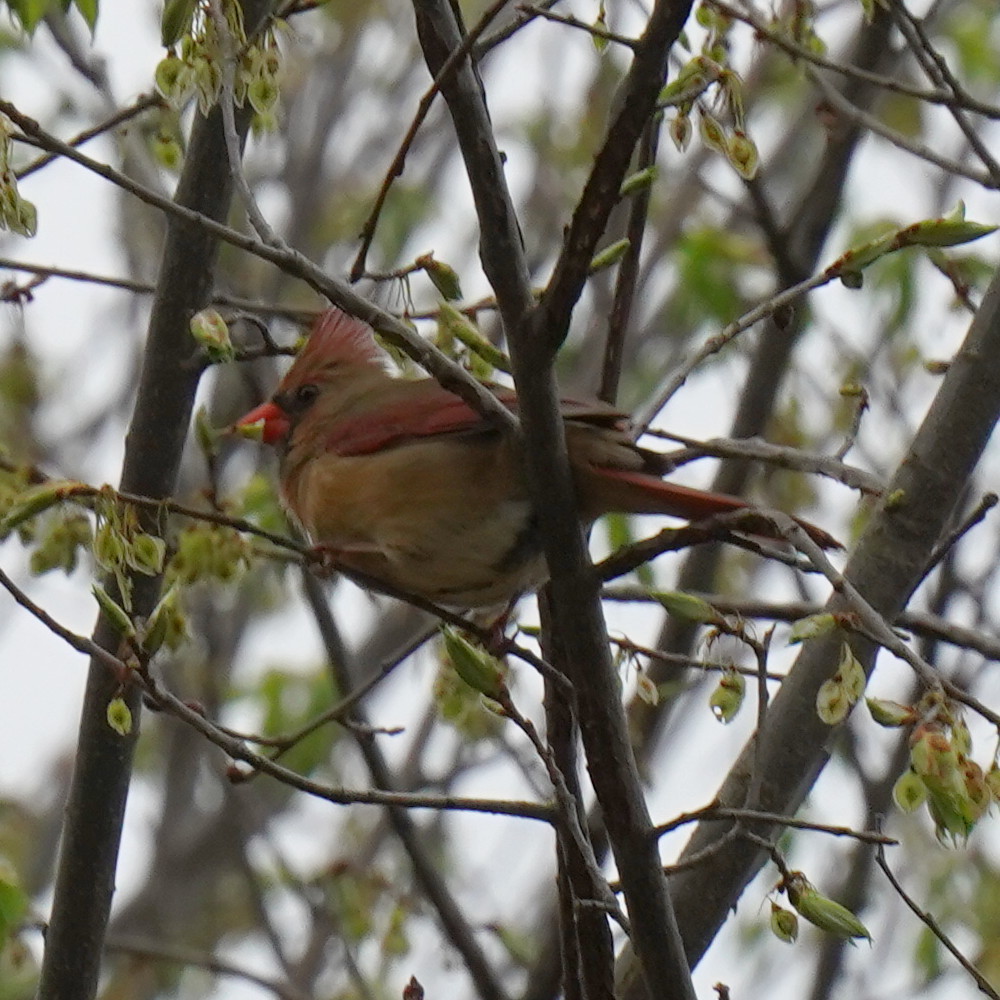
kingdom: Animalia
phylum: Chordata
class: Aves
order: Passeriformes
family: Cardinalidae
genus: Cardinalis
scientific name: Cardinalis cardinalis
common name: Northern cardinal
